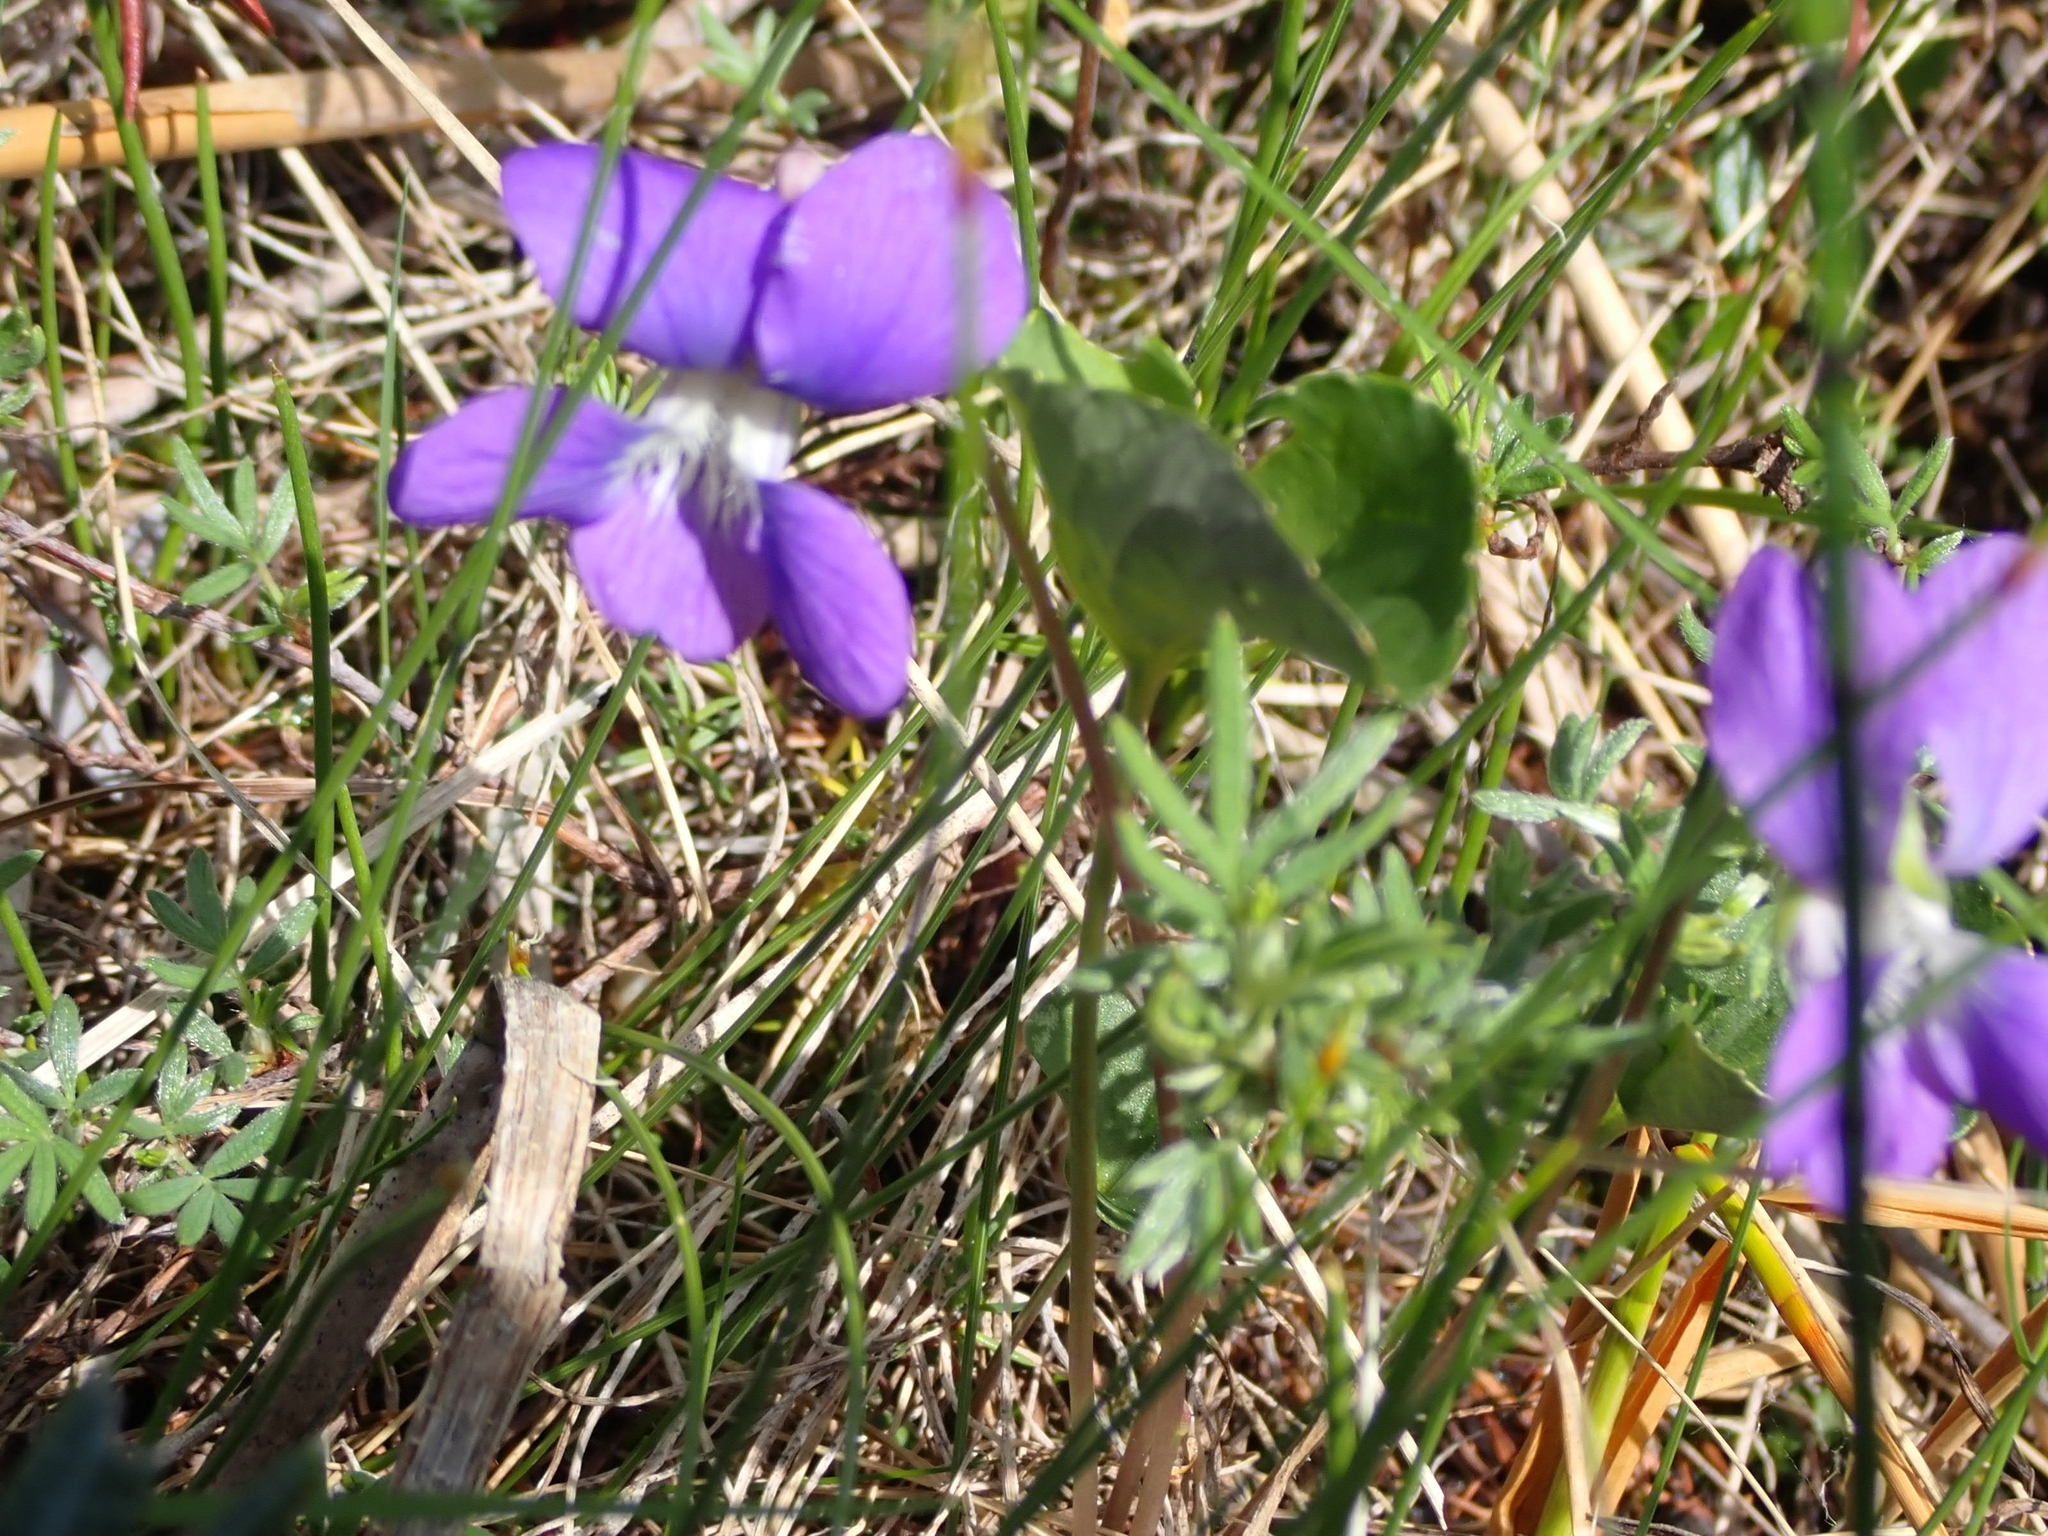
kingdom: Plantae
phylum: Tracheophyta
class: Magnoliopsida
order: Malpighiales
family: Violaceae
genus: Viola
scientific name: Viola nephrophylla
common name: Blue meadow violet
